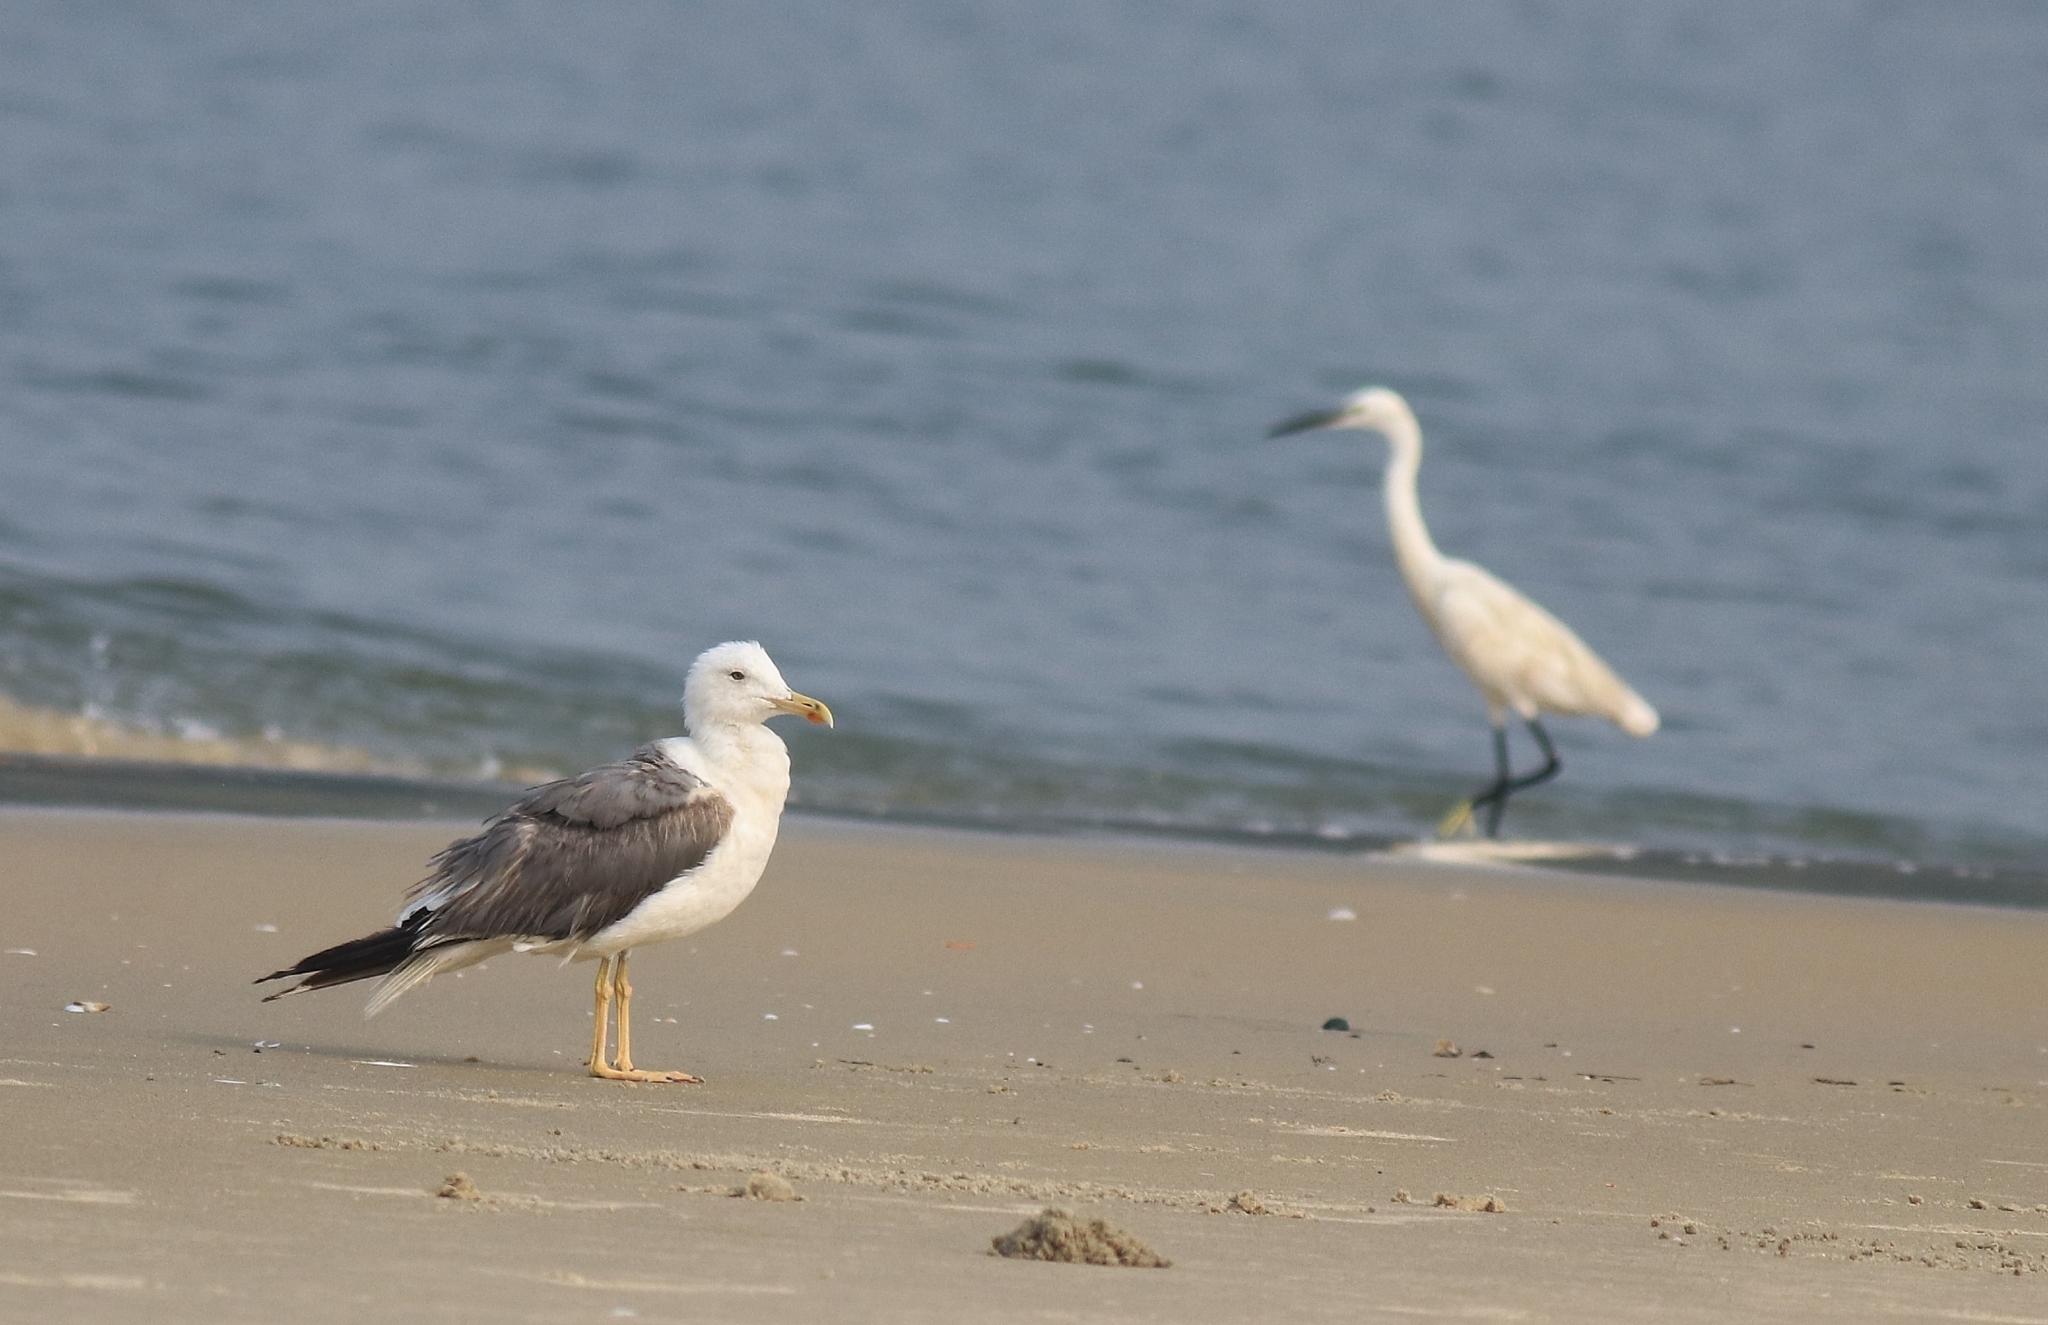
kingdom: Animalia
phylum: Chordata
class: Aves
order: Pelecaniformes
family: Ardeidae
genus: Egretta
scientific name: Egretta garzetta
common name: Little egret
